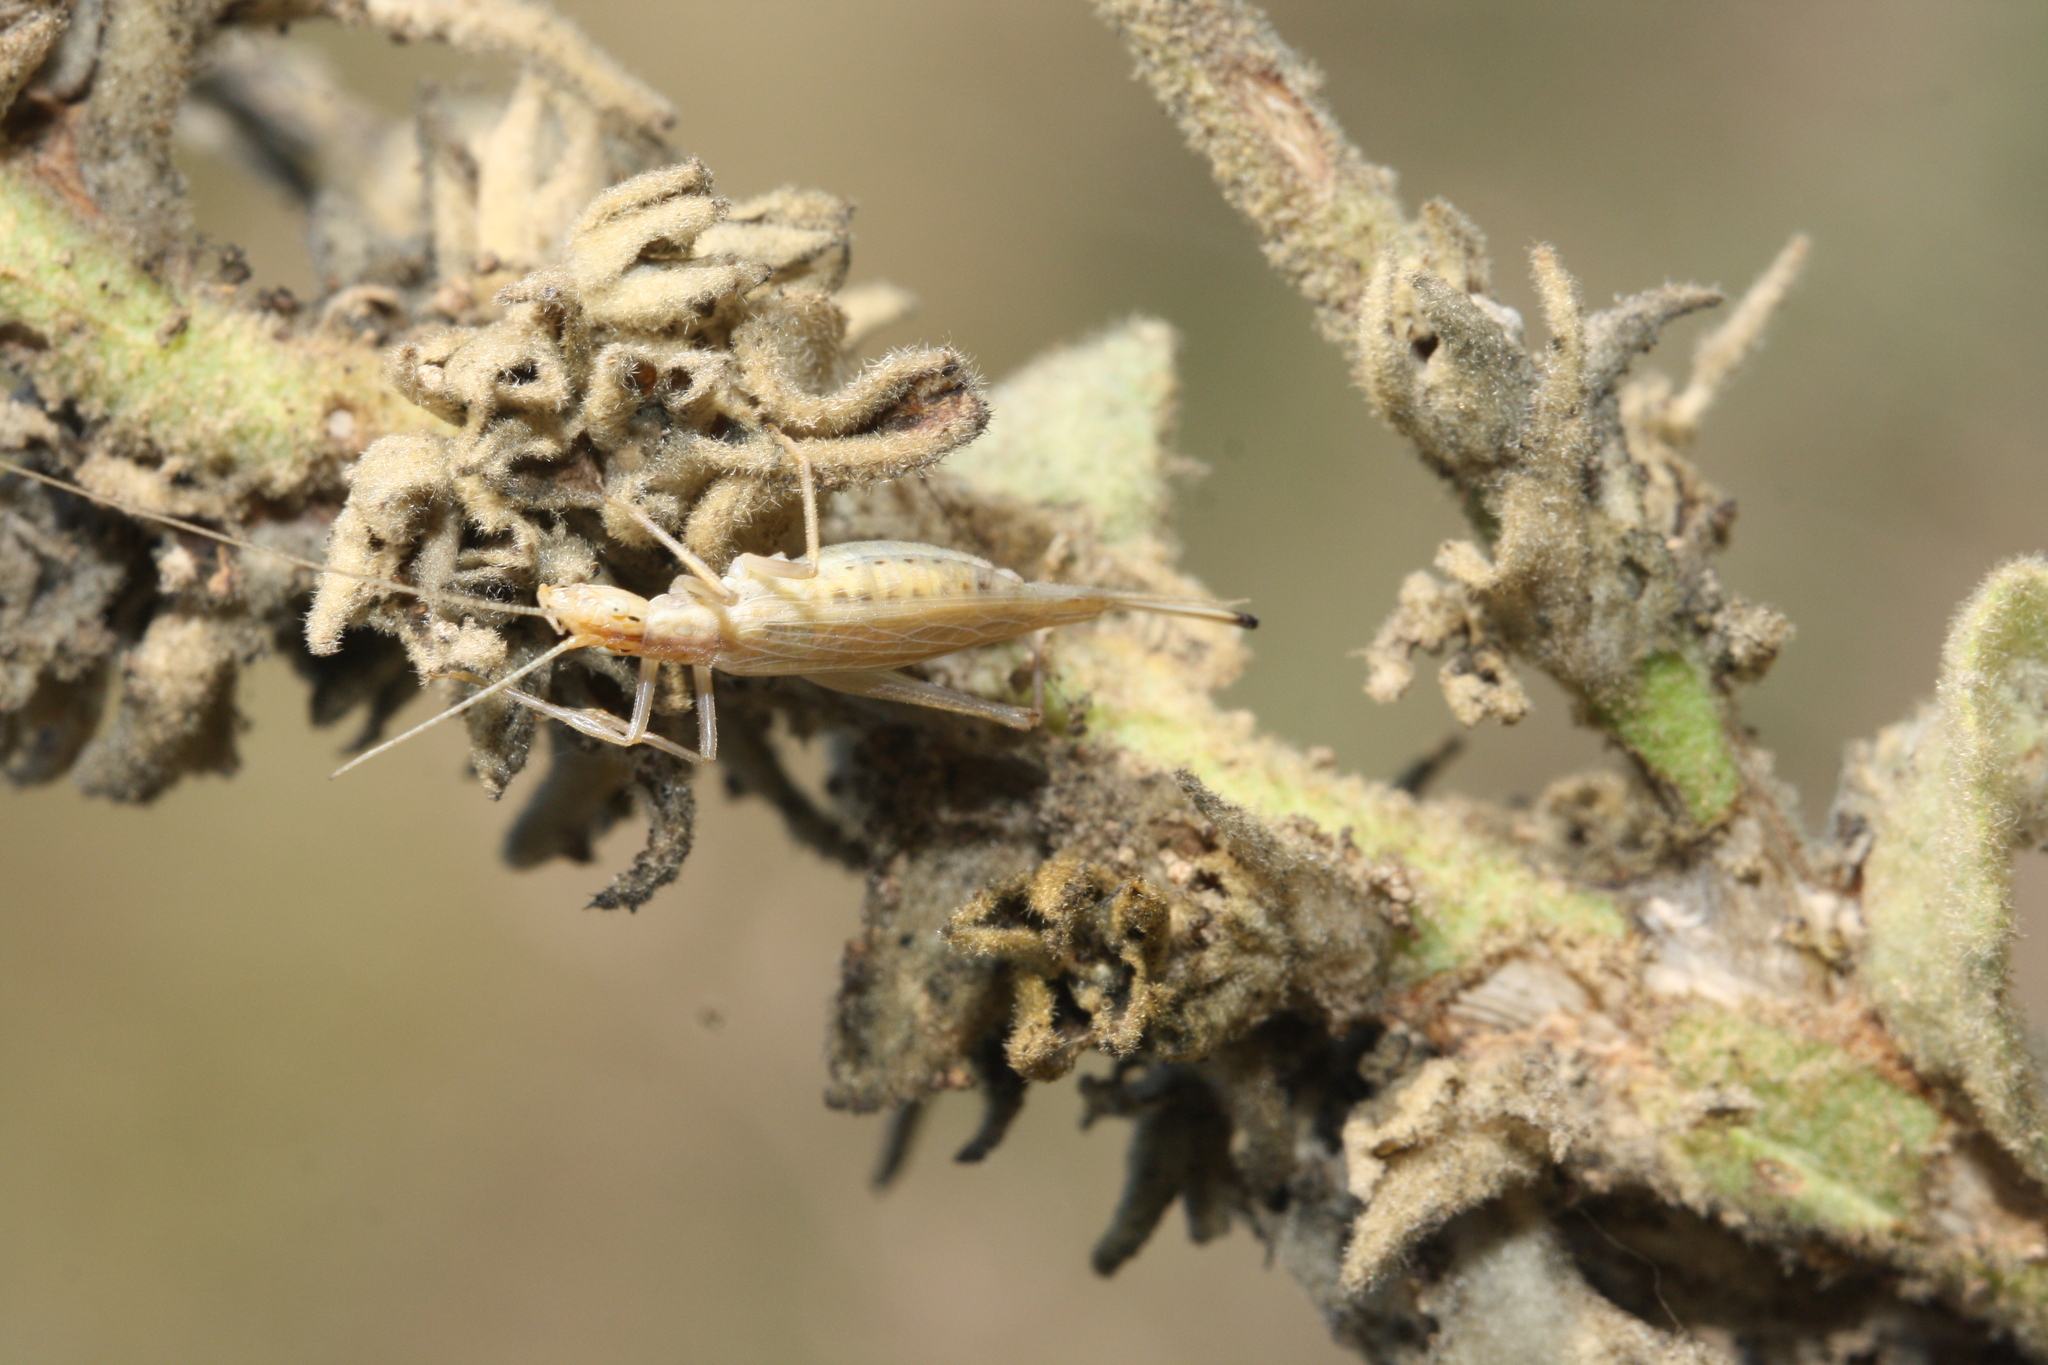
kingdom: Animalia
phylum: Arthropoda
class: Insecta
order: Orthoptera
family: Gryllidae
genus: Oecanthus
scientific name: Oecanthus pellucens
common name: Tree-cricket
